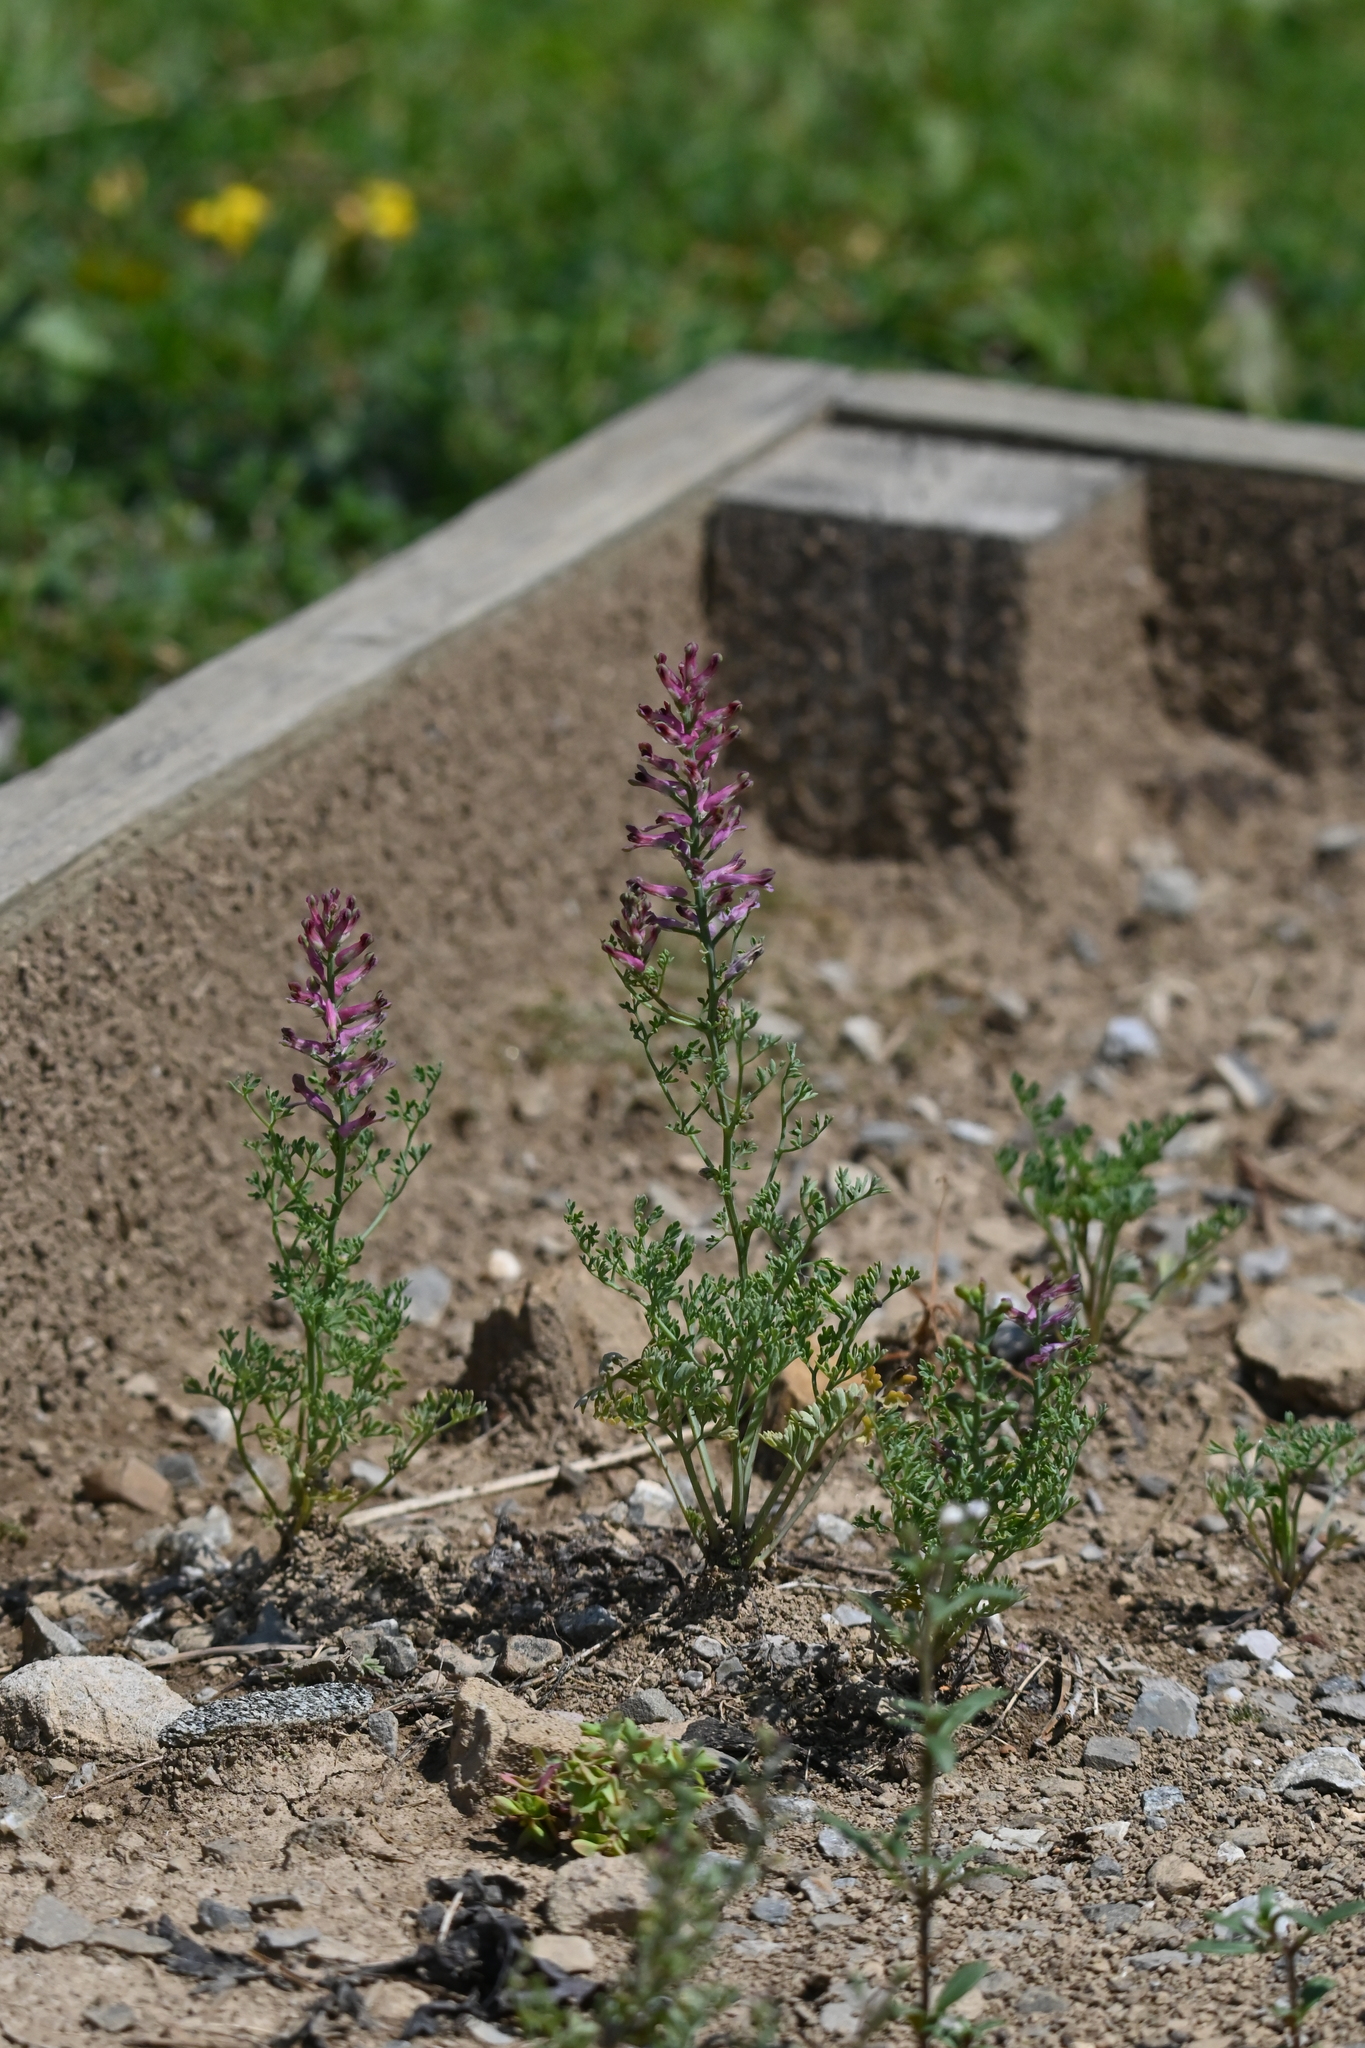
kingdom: Plantae
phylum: Tracheophyta
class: Magnoliopsida
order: Ranunculales
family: Papaveraceae
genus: Fumaria
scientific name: Fumaria officinalis
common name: Common fumitory
